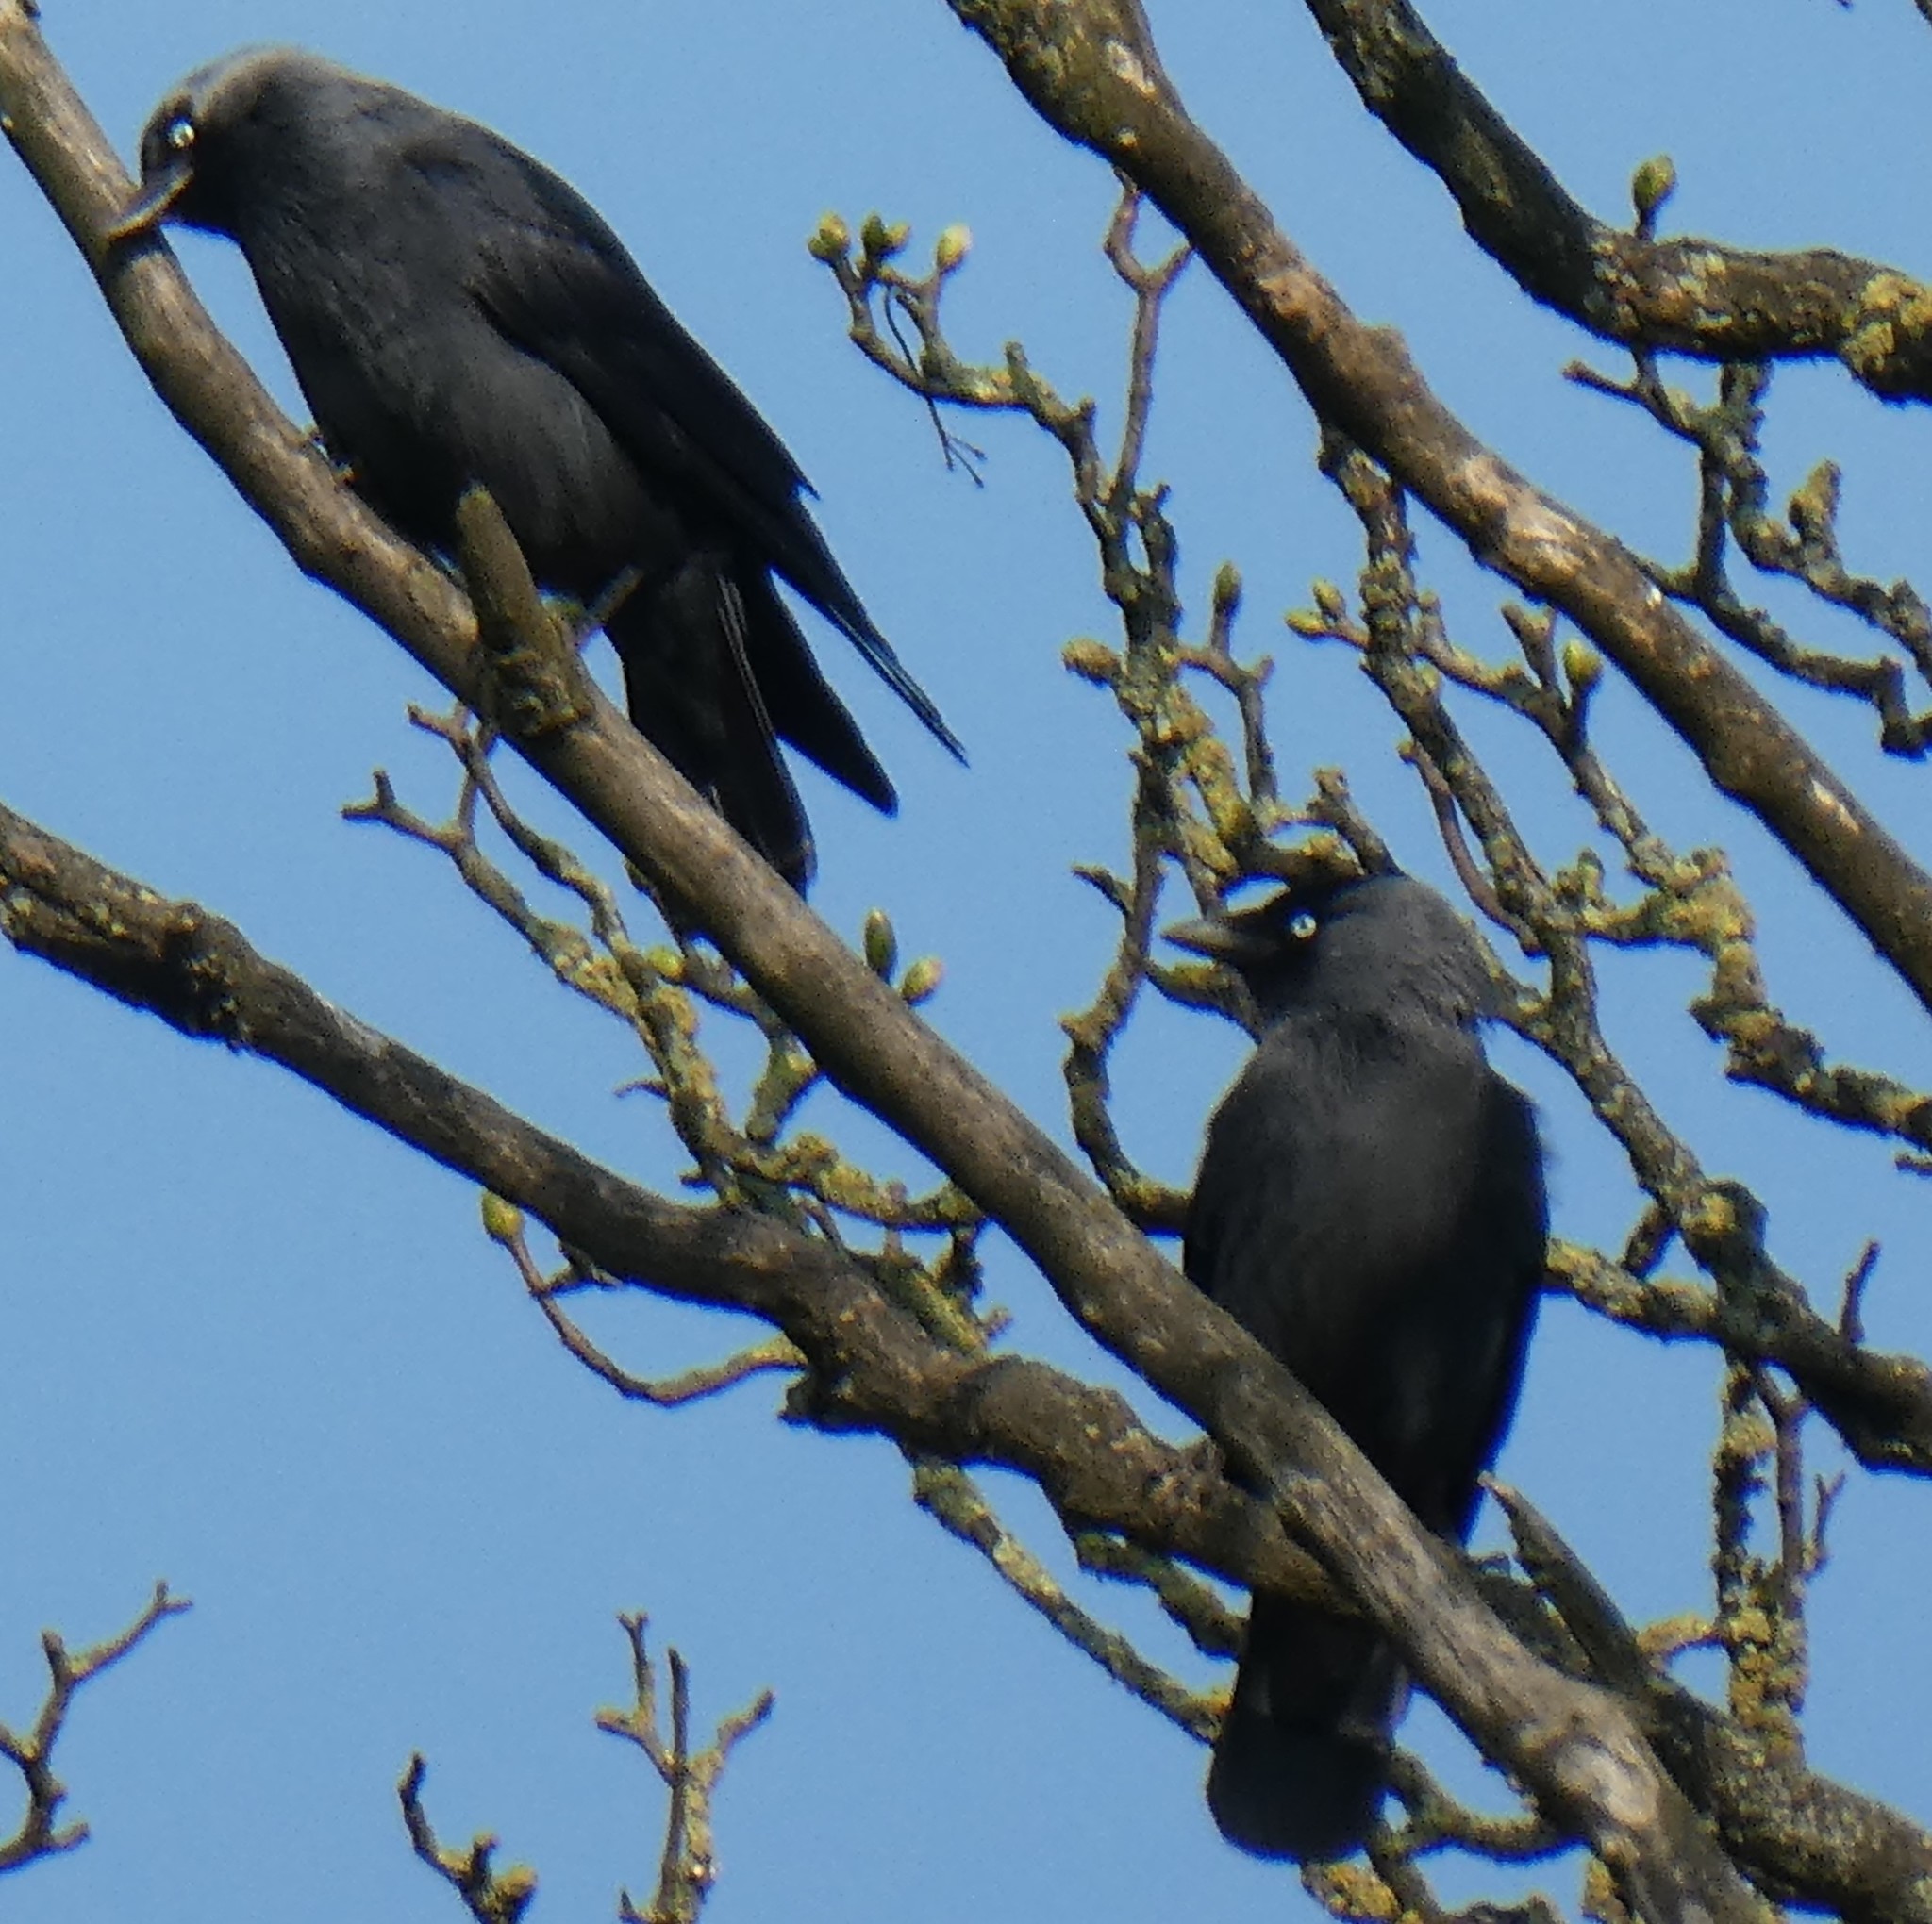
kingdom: Animalia
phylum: Chordata
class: Aves
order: Passeriformes
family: Corvidae
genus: Coloeus
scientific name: Coloeus monedula
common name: Western jackdaw
